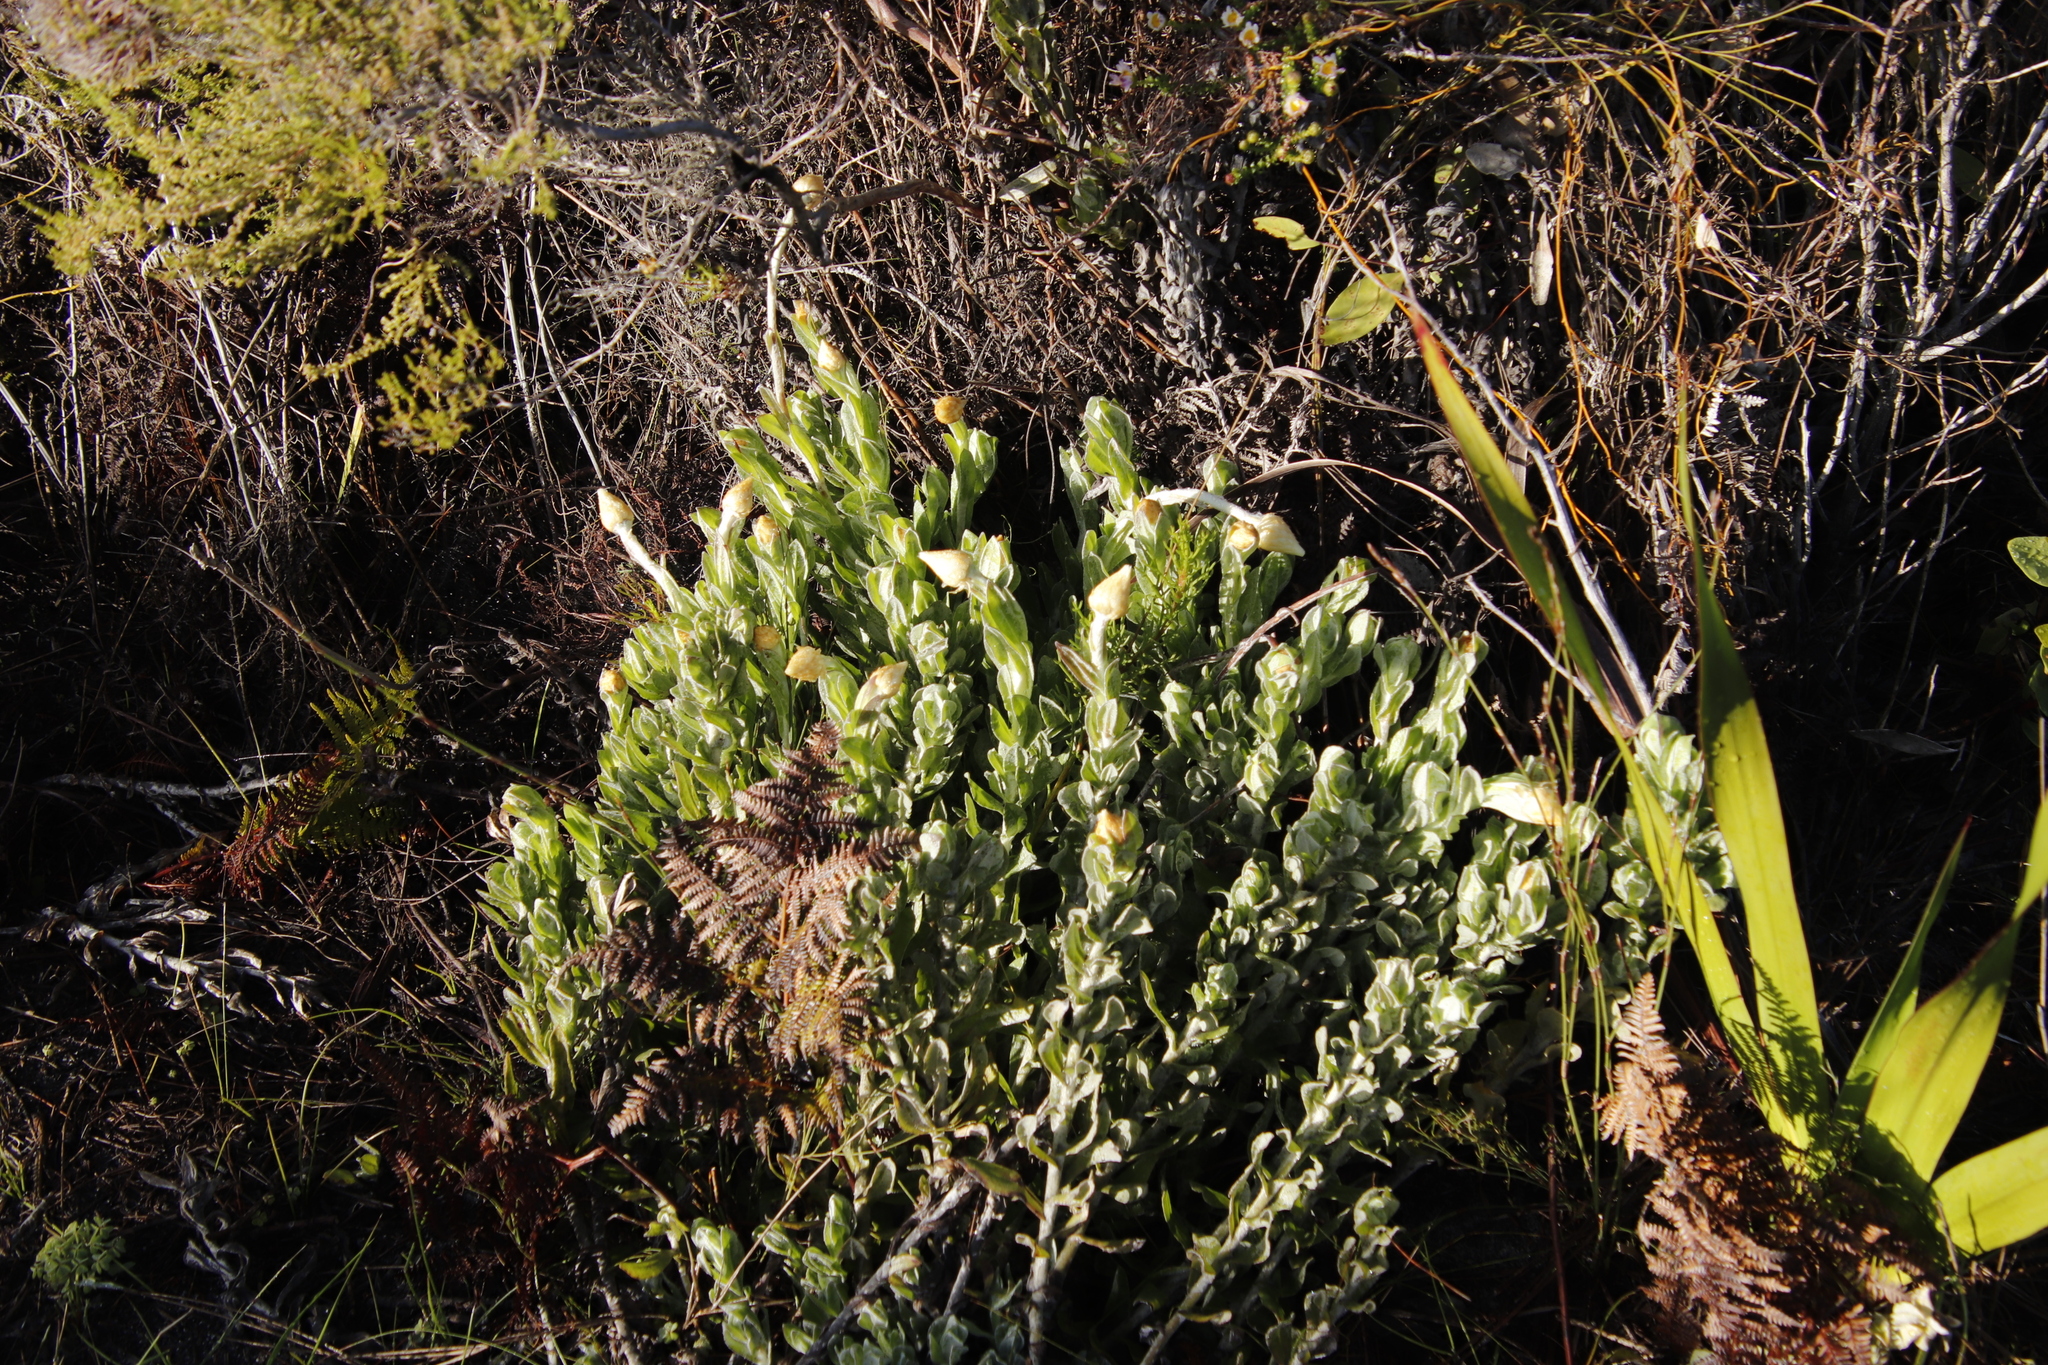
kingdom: Plantae
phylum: Tracheophyta
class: Magnoliopsida
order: Asterales
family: Asteraceae
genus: Syncarpha
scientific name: Syncarpha speciosissima
